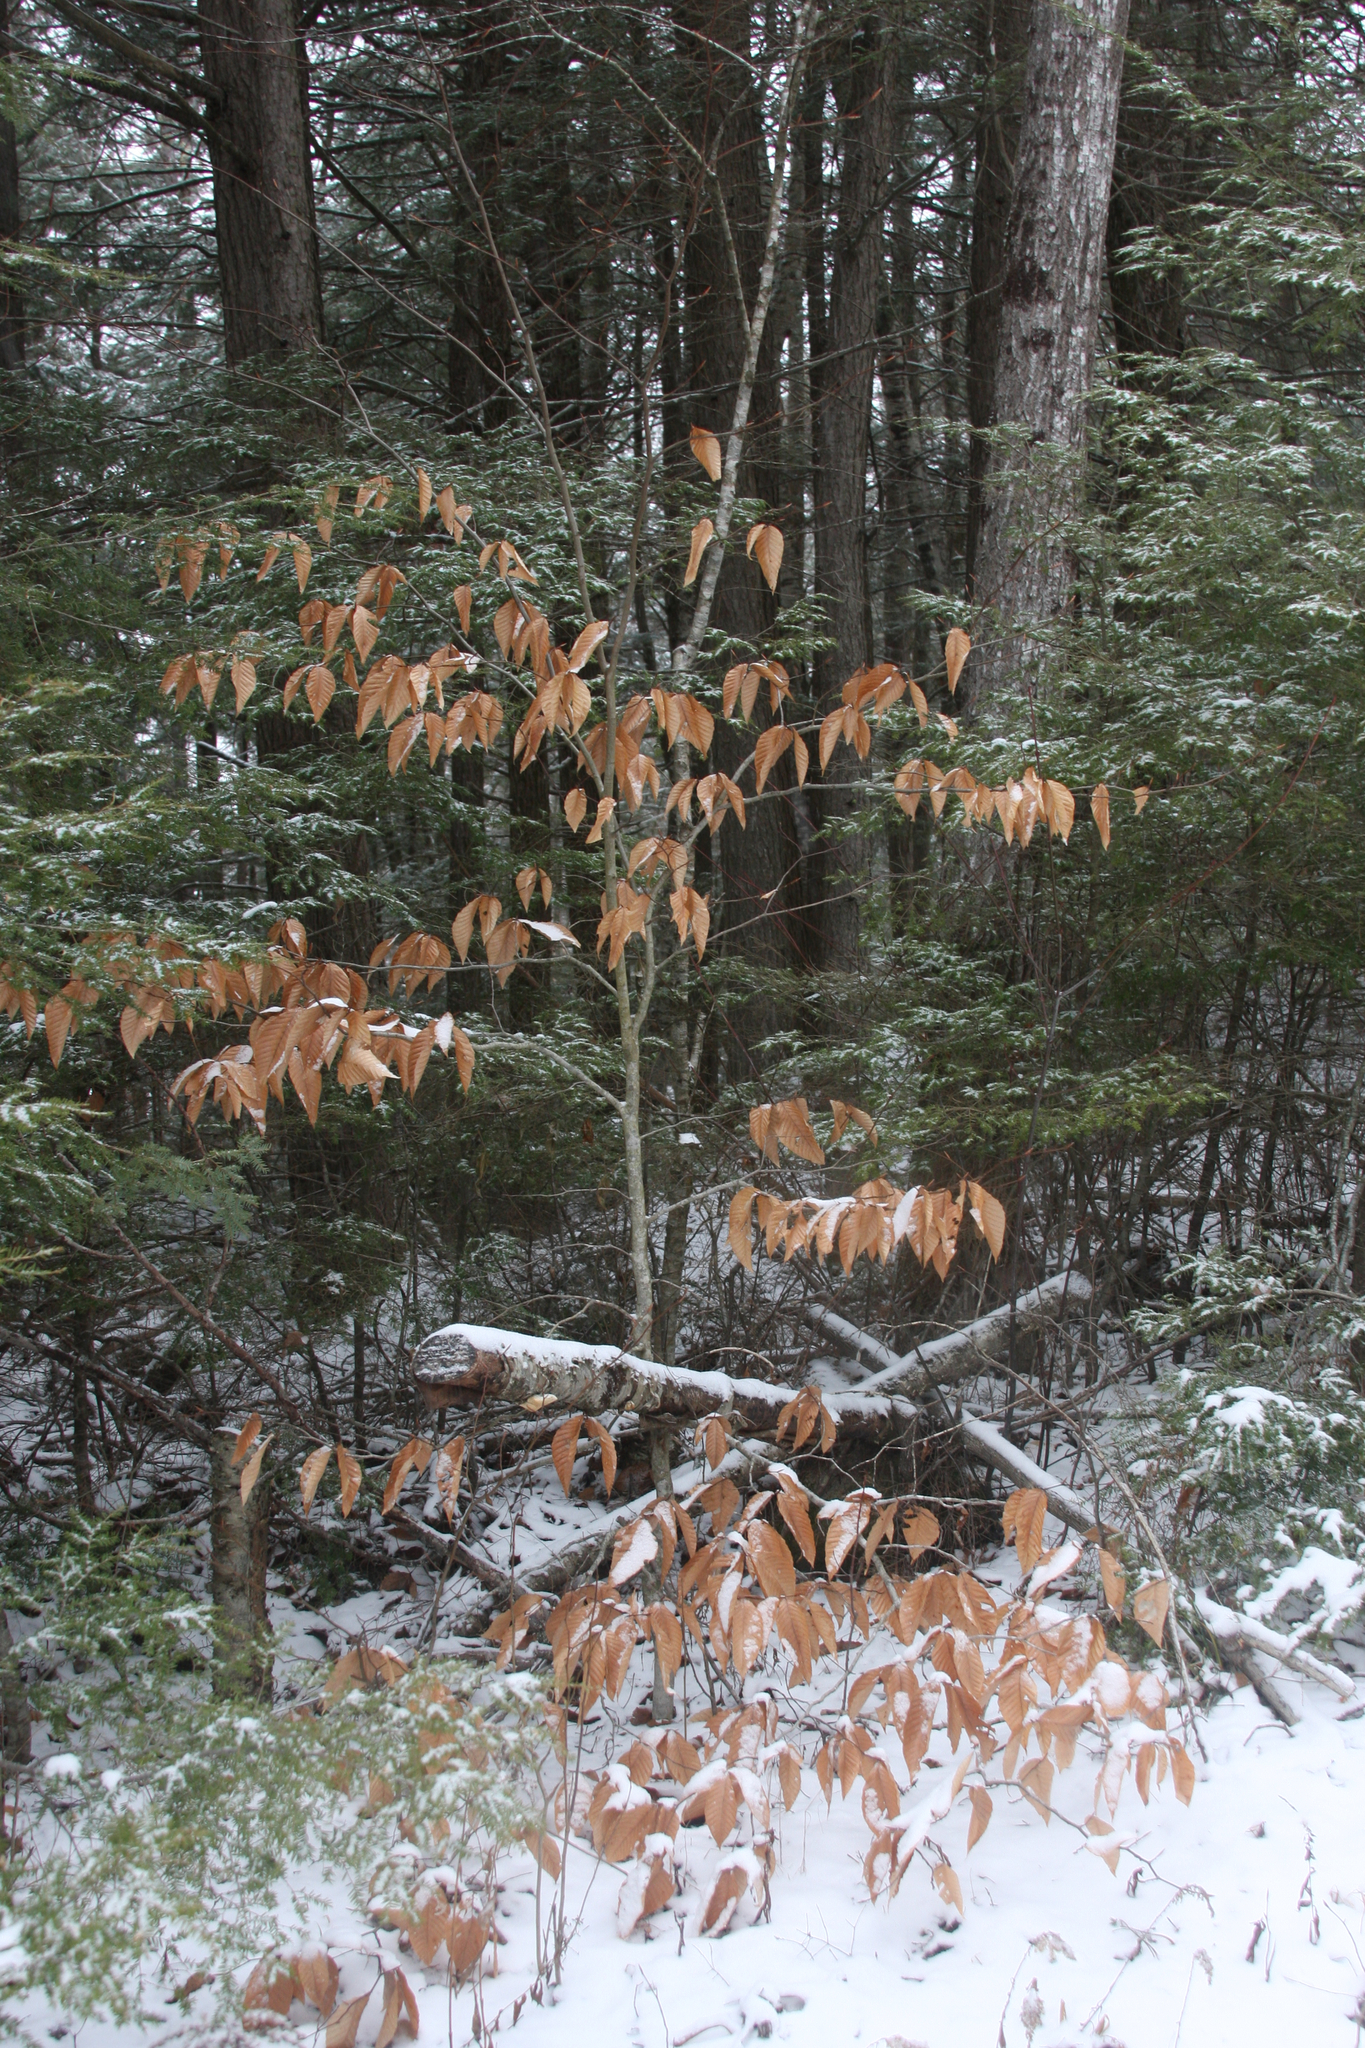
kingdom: Plantae
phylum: Tracheophyta
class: Magnoliopsida
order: Fagales
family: Fagaceae
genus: Fagus
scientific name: Fagus grandifolia
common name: American beech
